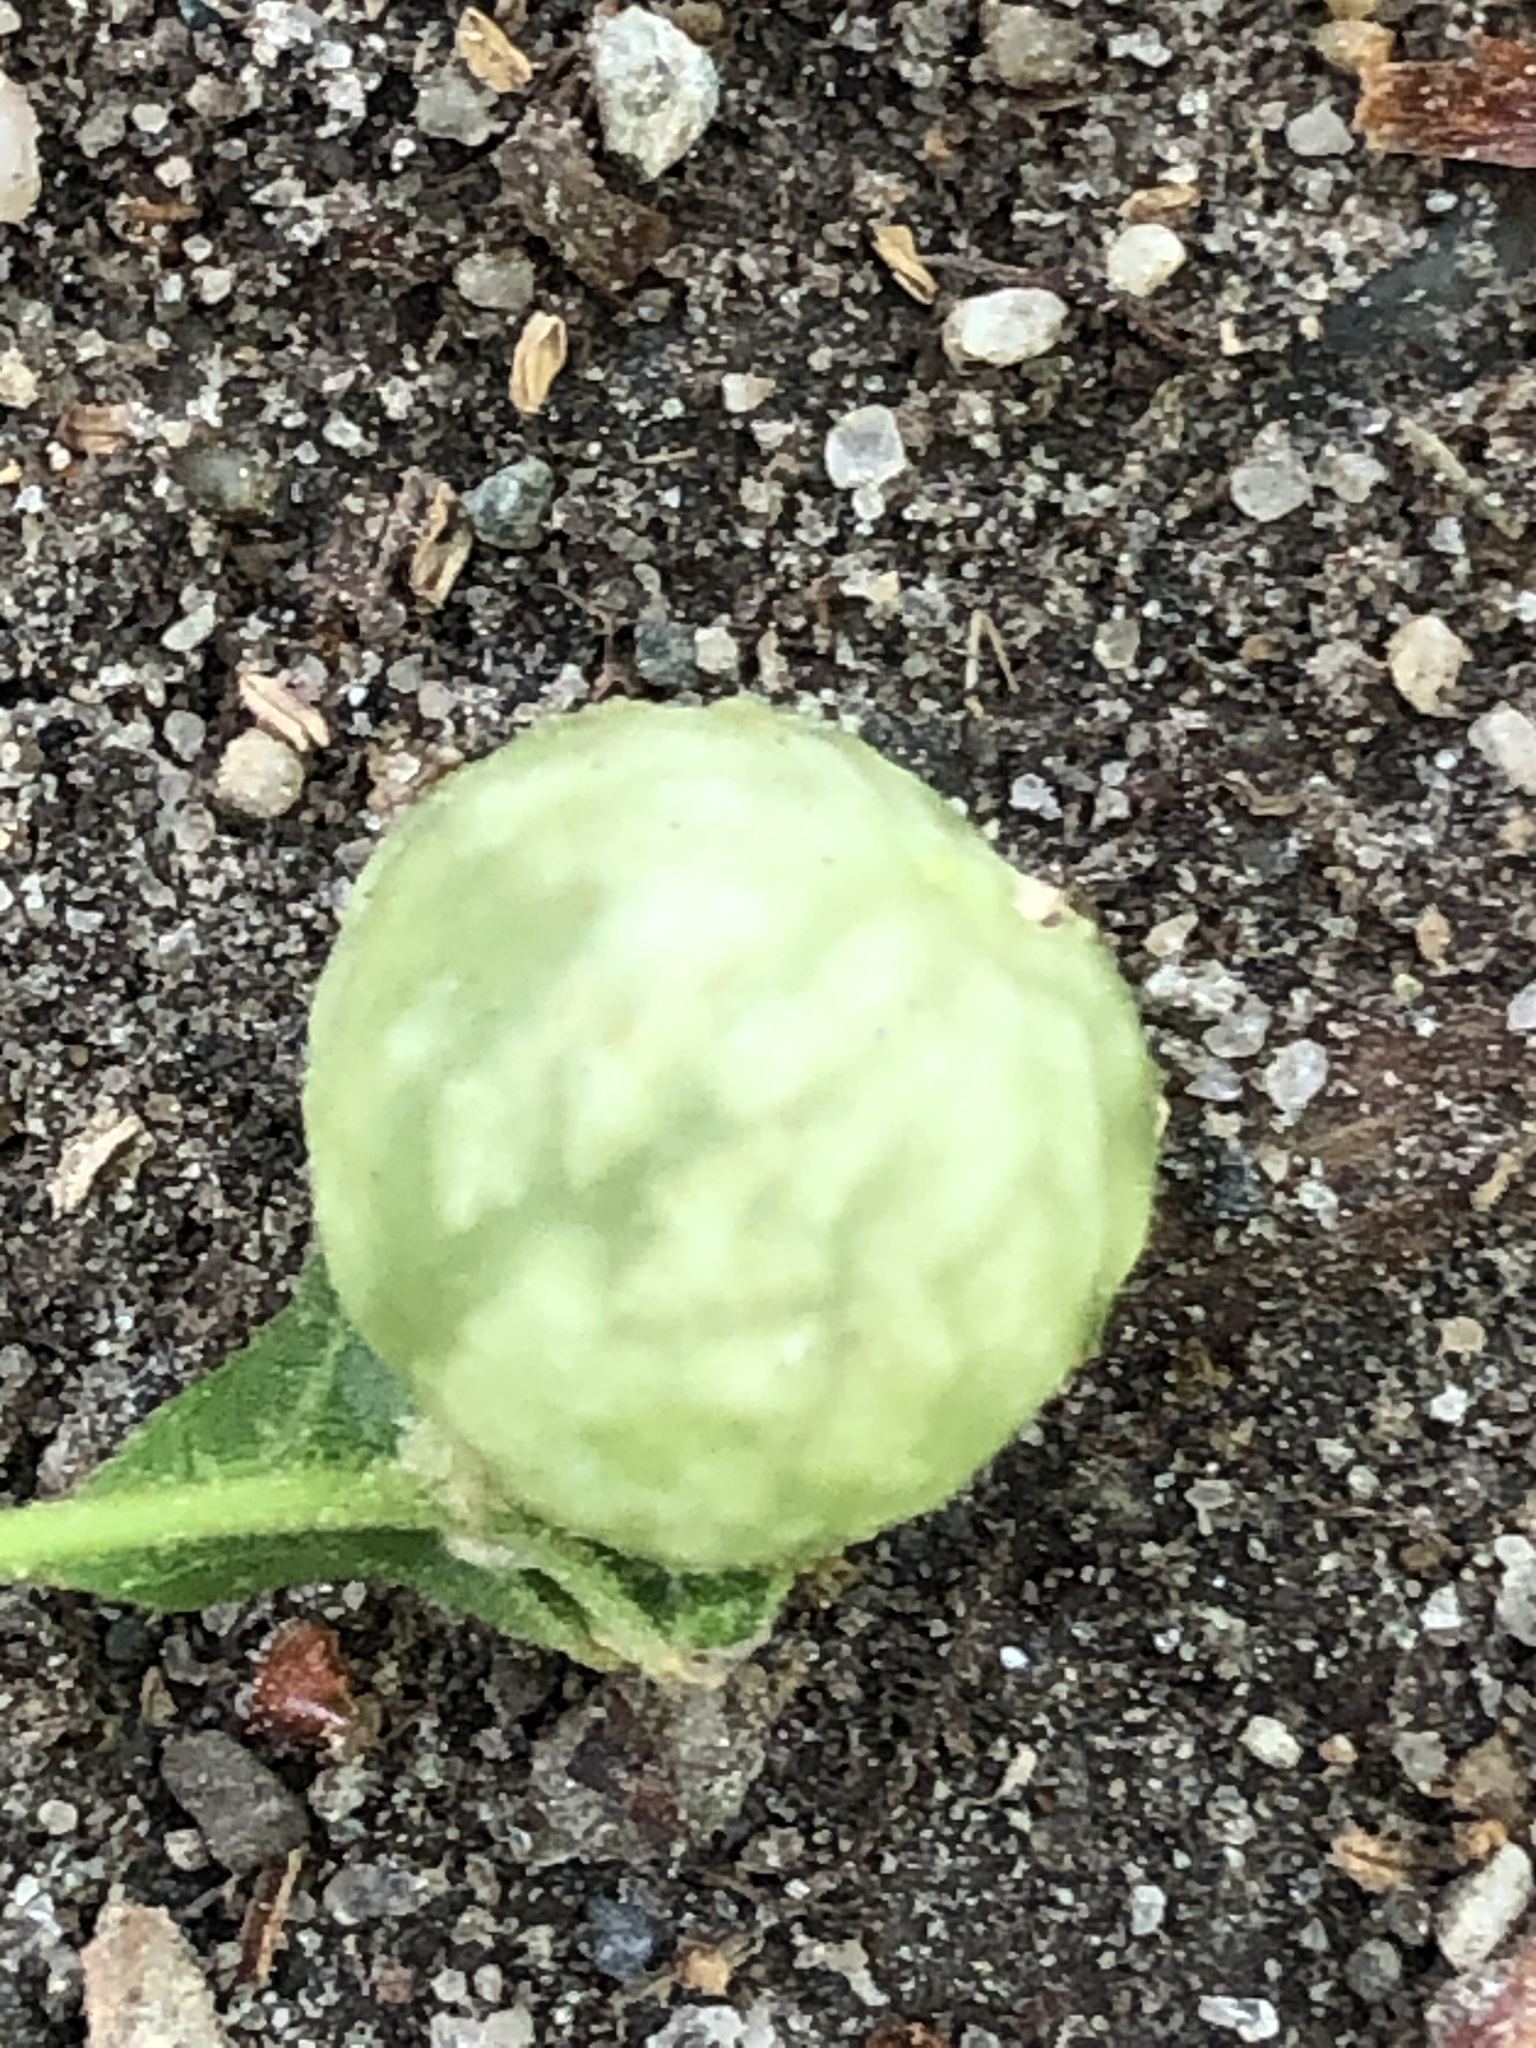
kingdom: Animalia
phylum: Arthropoda
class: Insecta
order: Hymenoptera
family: Cynipidae
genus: Dryocosmus
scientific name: Dryocosmus quercuspalustris
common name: Succulent oak gall wasp
